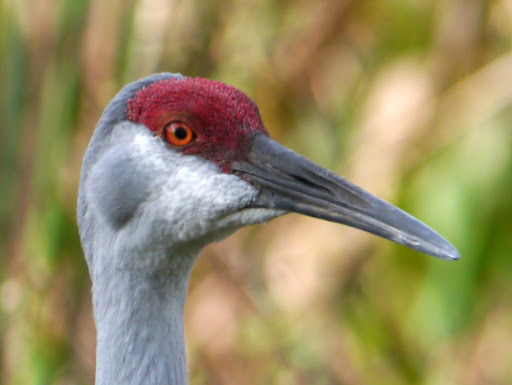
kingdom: Animalia
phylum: Chordata
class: Aves
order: Gruiformes
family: Gruidae
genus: Grus
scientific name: Grus canadensis
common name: Sandhill crane
